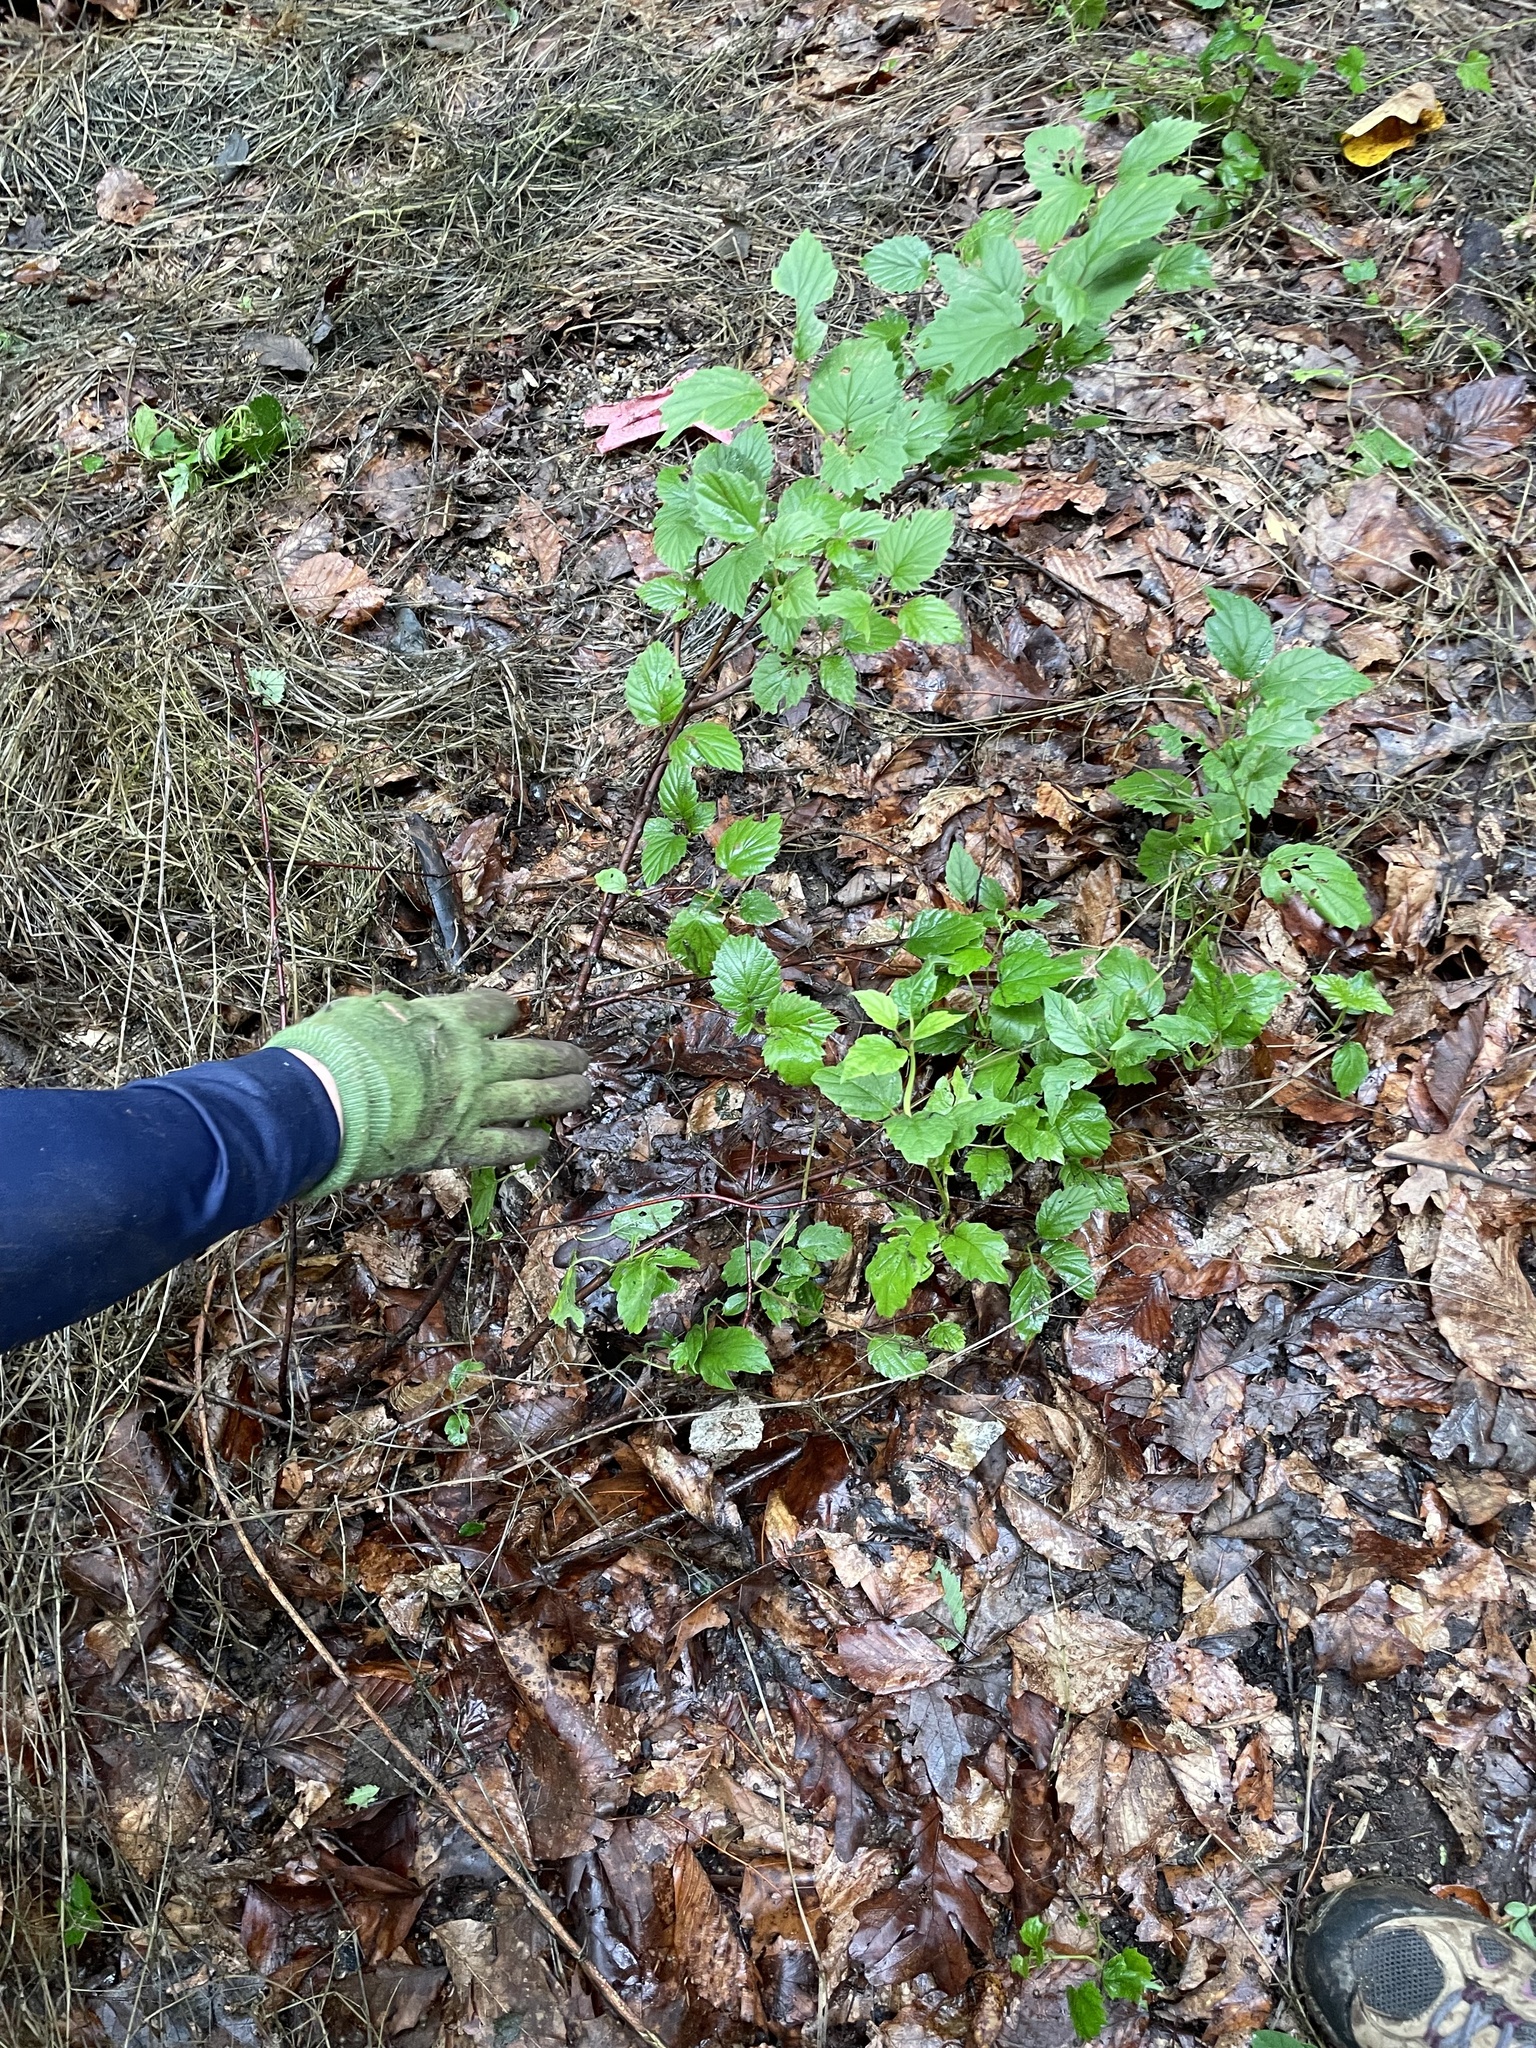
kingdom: Plantae
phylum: Tracheophyta
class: Magnoliopsida
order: Dipsacales
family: Viburnaceae
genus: Viburnum
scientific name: Viburnum recognitum
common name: Northern arrow-wood
